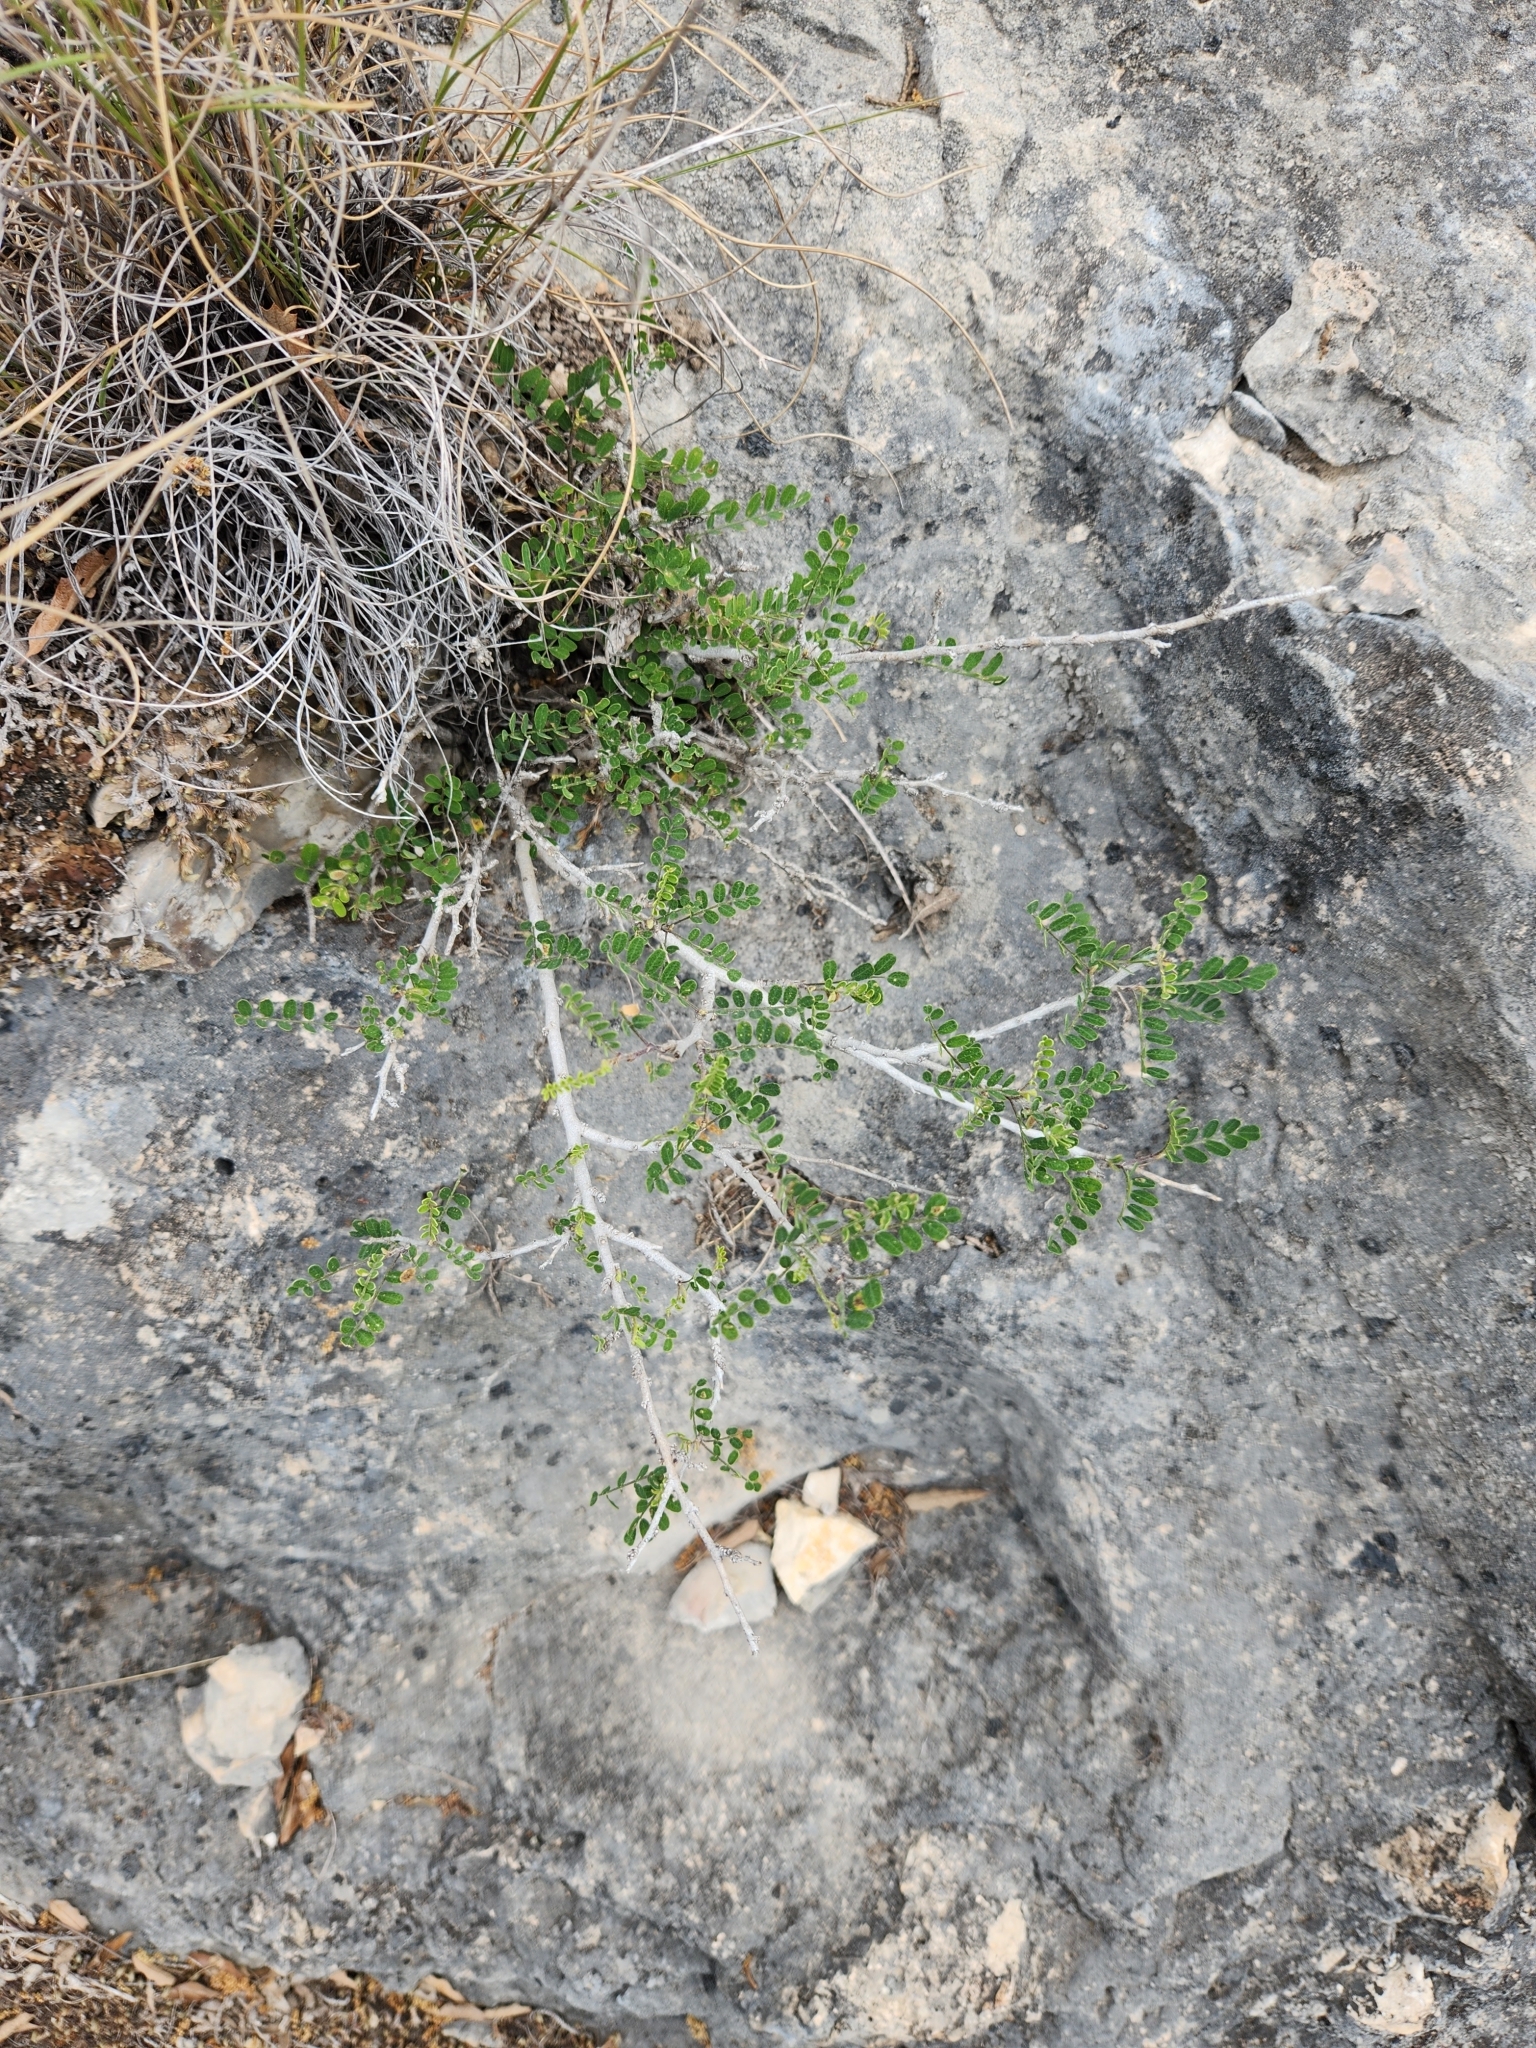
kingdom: Plantae
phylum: Tracheophyta
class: Magnoliopsida
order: Fabales
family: Fabaceae
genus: Eysenhardtia
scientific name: Eysenhardtia texana
